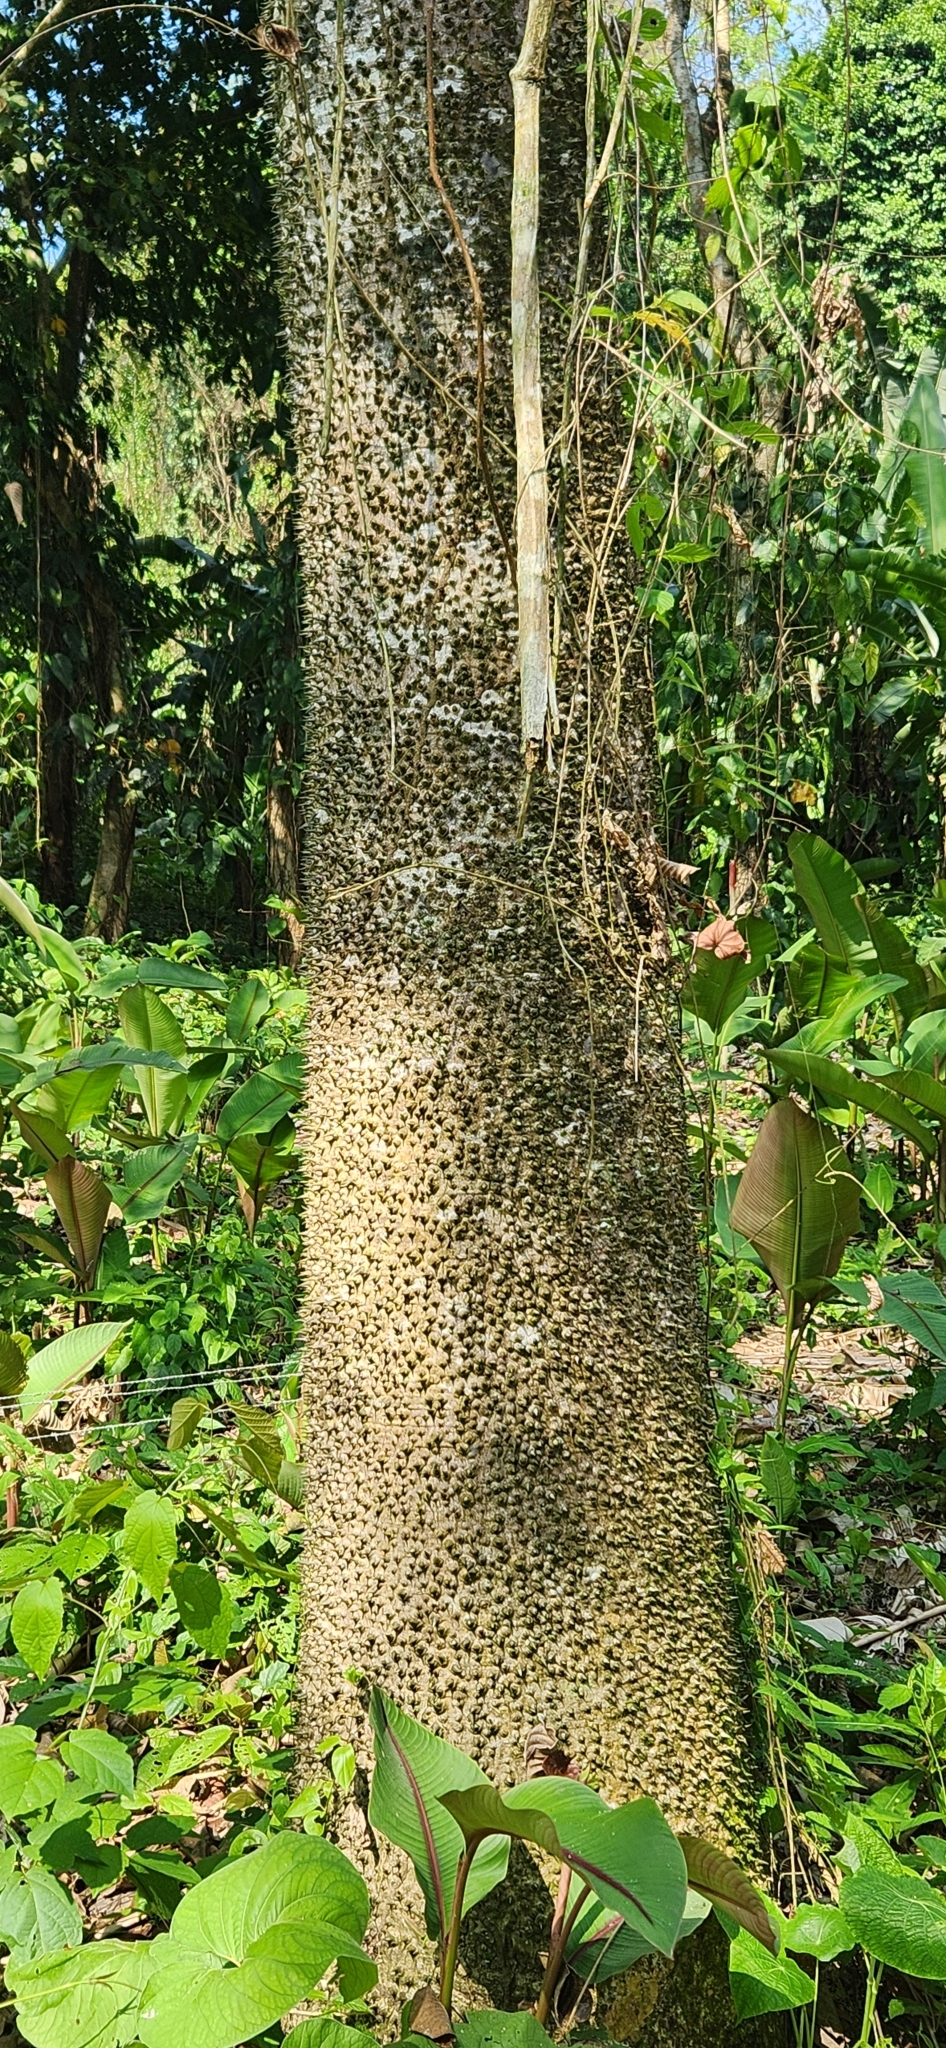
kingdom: Plantae
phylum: Tracheophyta
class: Magnoliopsida
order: Malpighiales
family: Euphorbiaceae
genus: Hura
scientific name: Hura crepitans
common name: Sandboxtree
